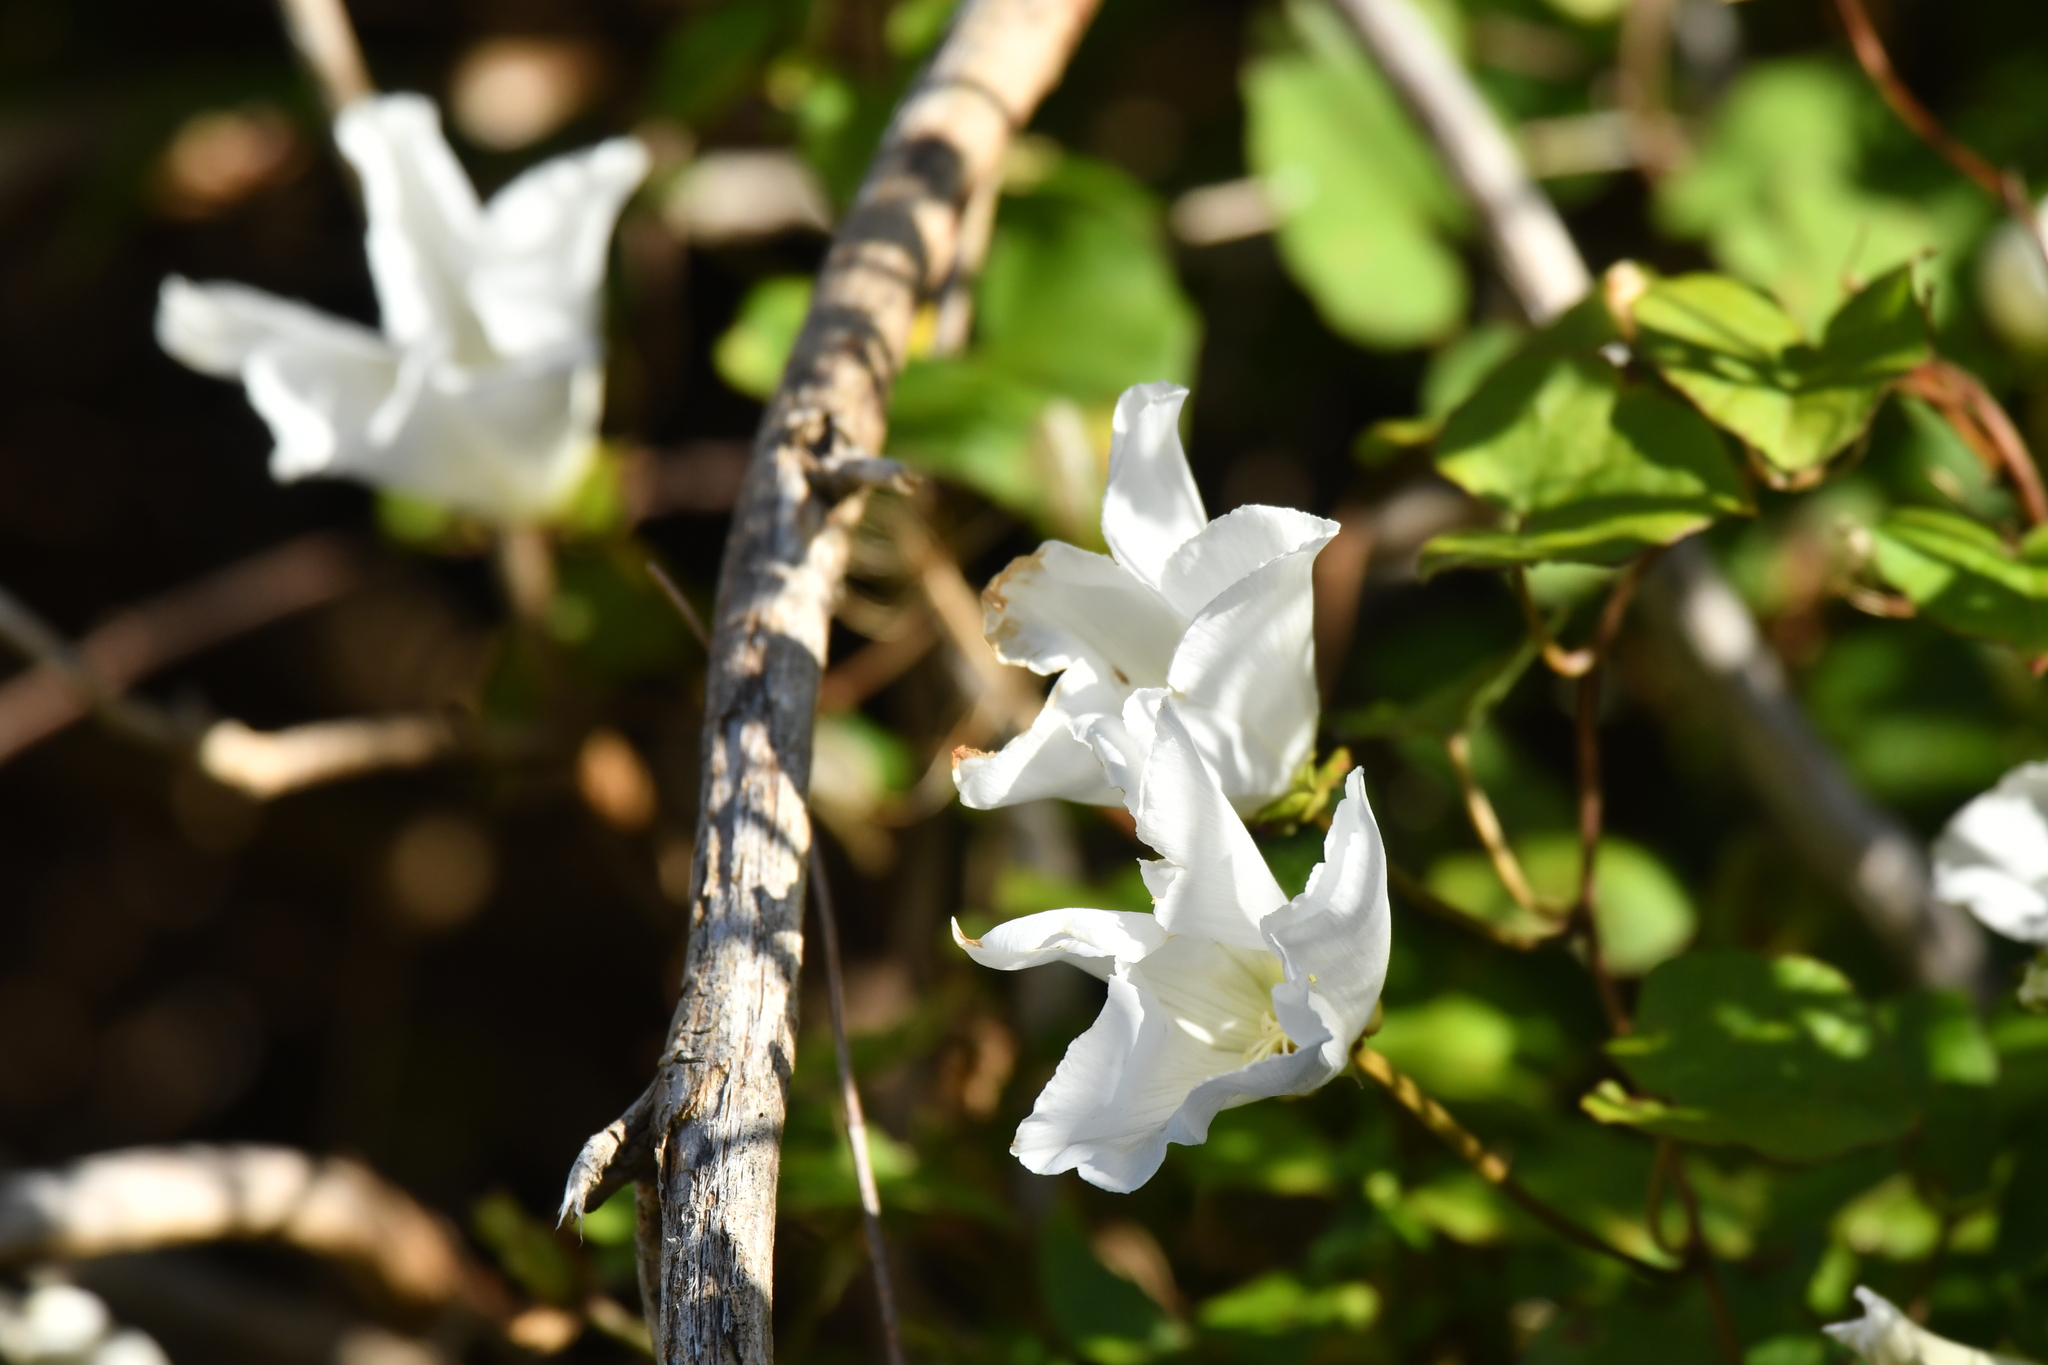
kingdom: Plantae
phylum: Tracheophyta
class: Magnoliopsida
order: Solanales
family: Convolvulaceae
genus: Calystegia
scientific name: Calystegia tuguriorum
